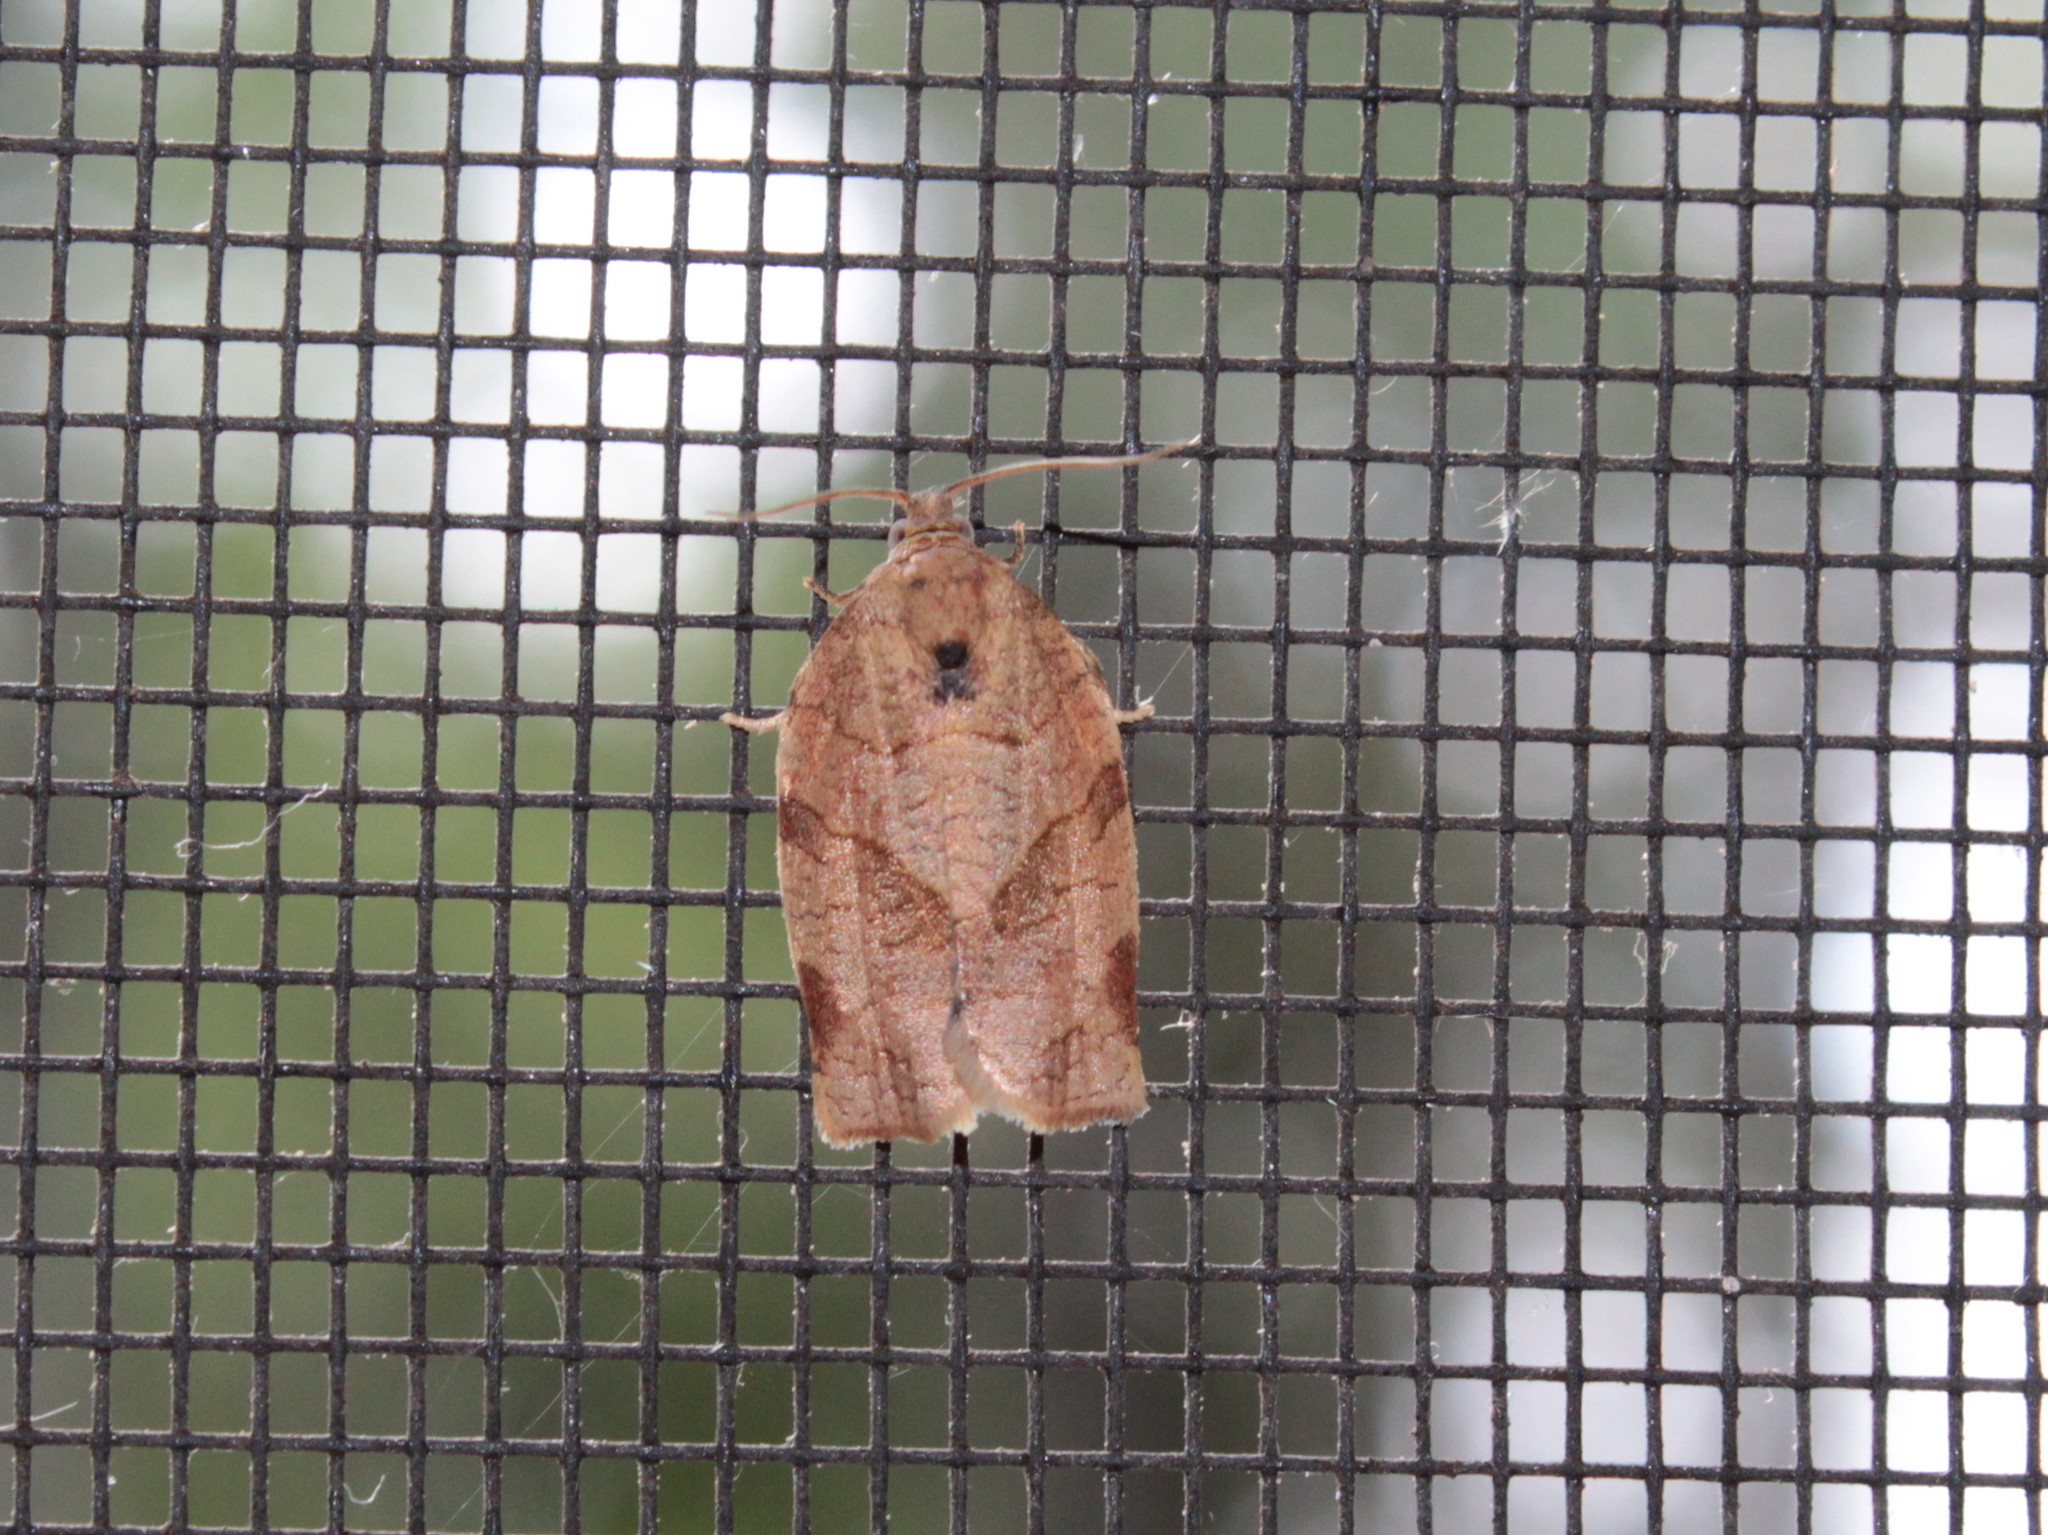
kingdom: Animalia
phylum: Arthropoda
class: Insecta
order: Lepidoptera
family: Tortricidae
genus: Choristoneura
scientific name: Choristoneura rosaceana
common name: Oblique-banded leafroller moth
